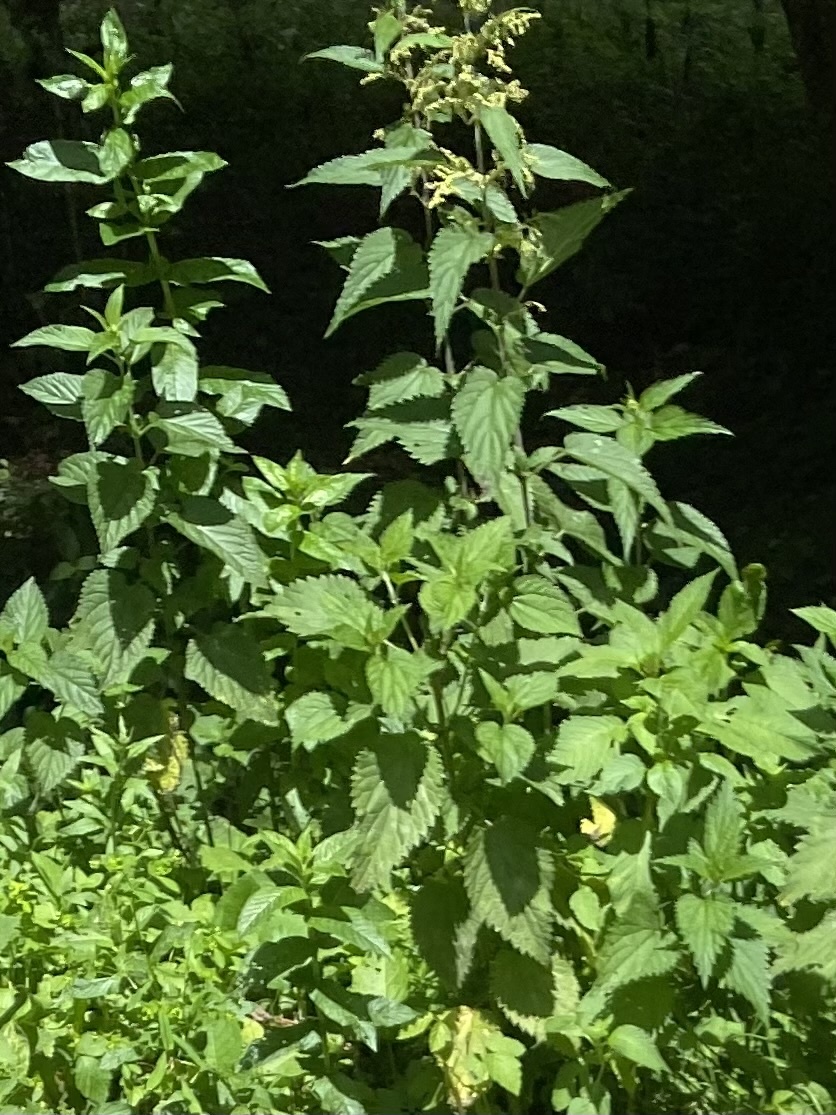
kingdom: Plantae
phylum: Tracheophyta
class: Magnoliopsida
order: Rosales
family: Urticaceae
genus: Urtica
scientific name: Urtica dioica
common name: Common nettle
